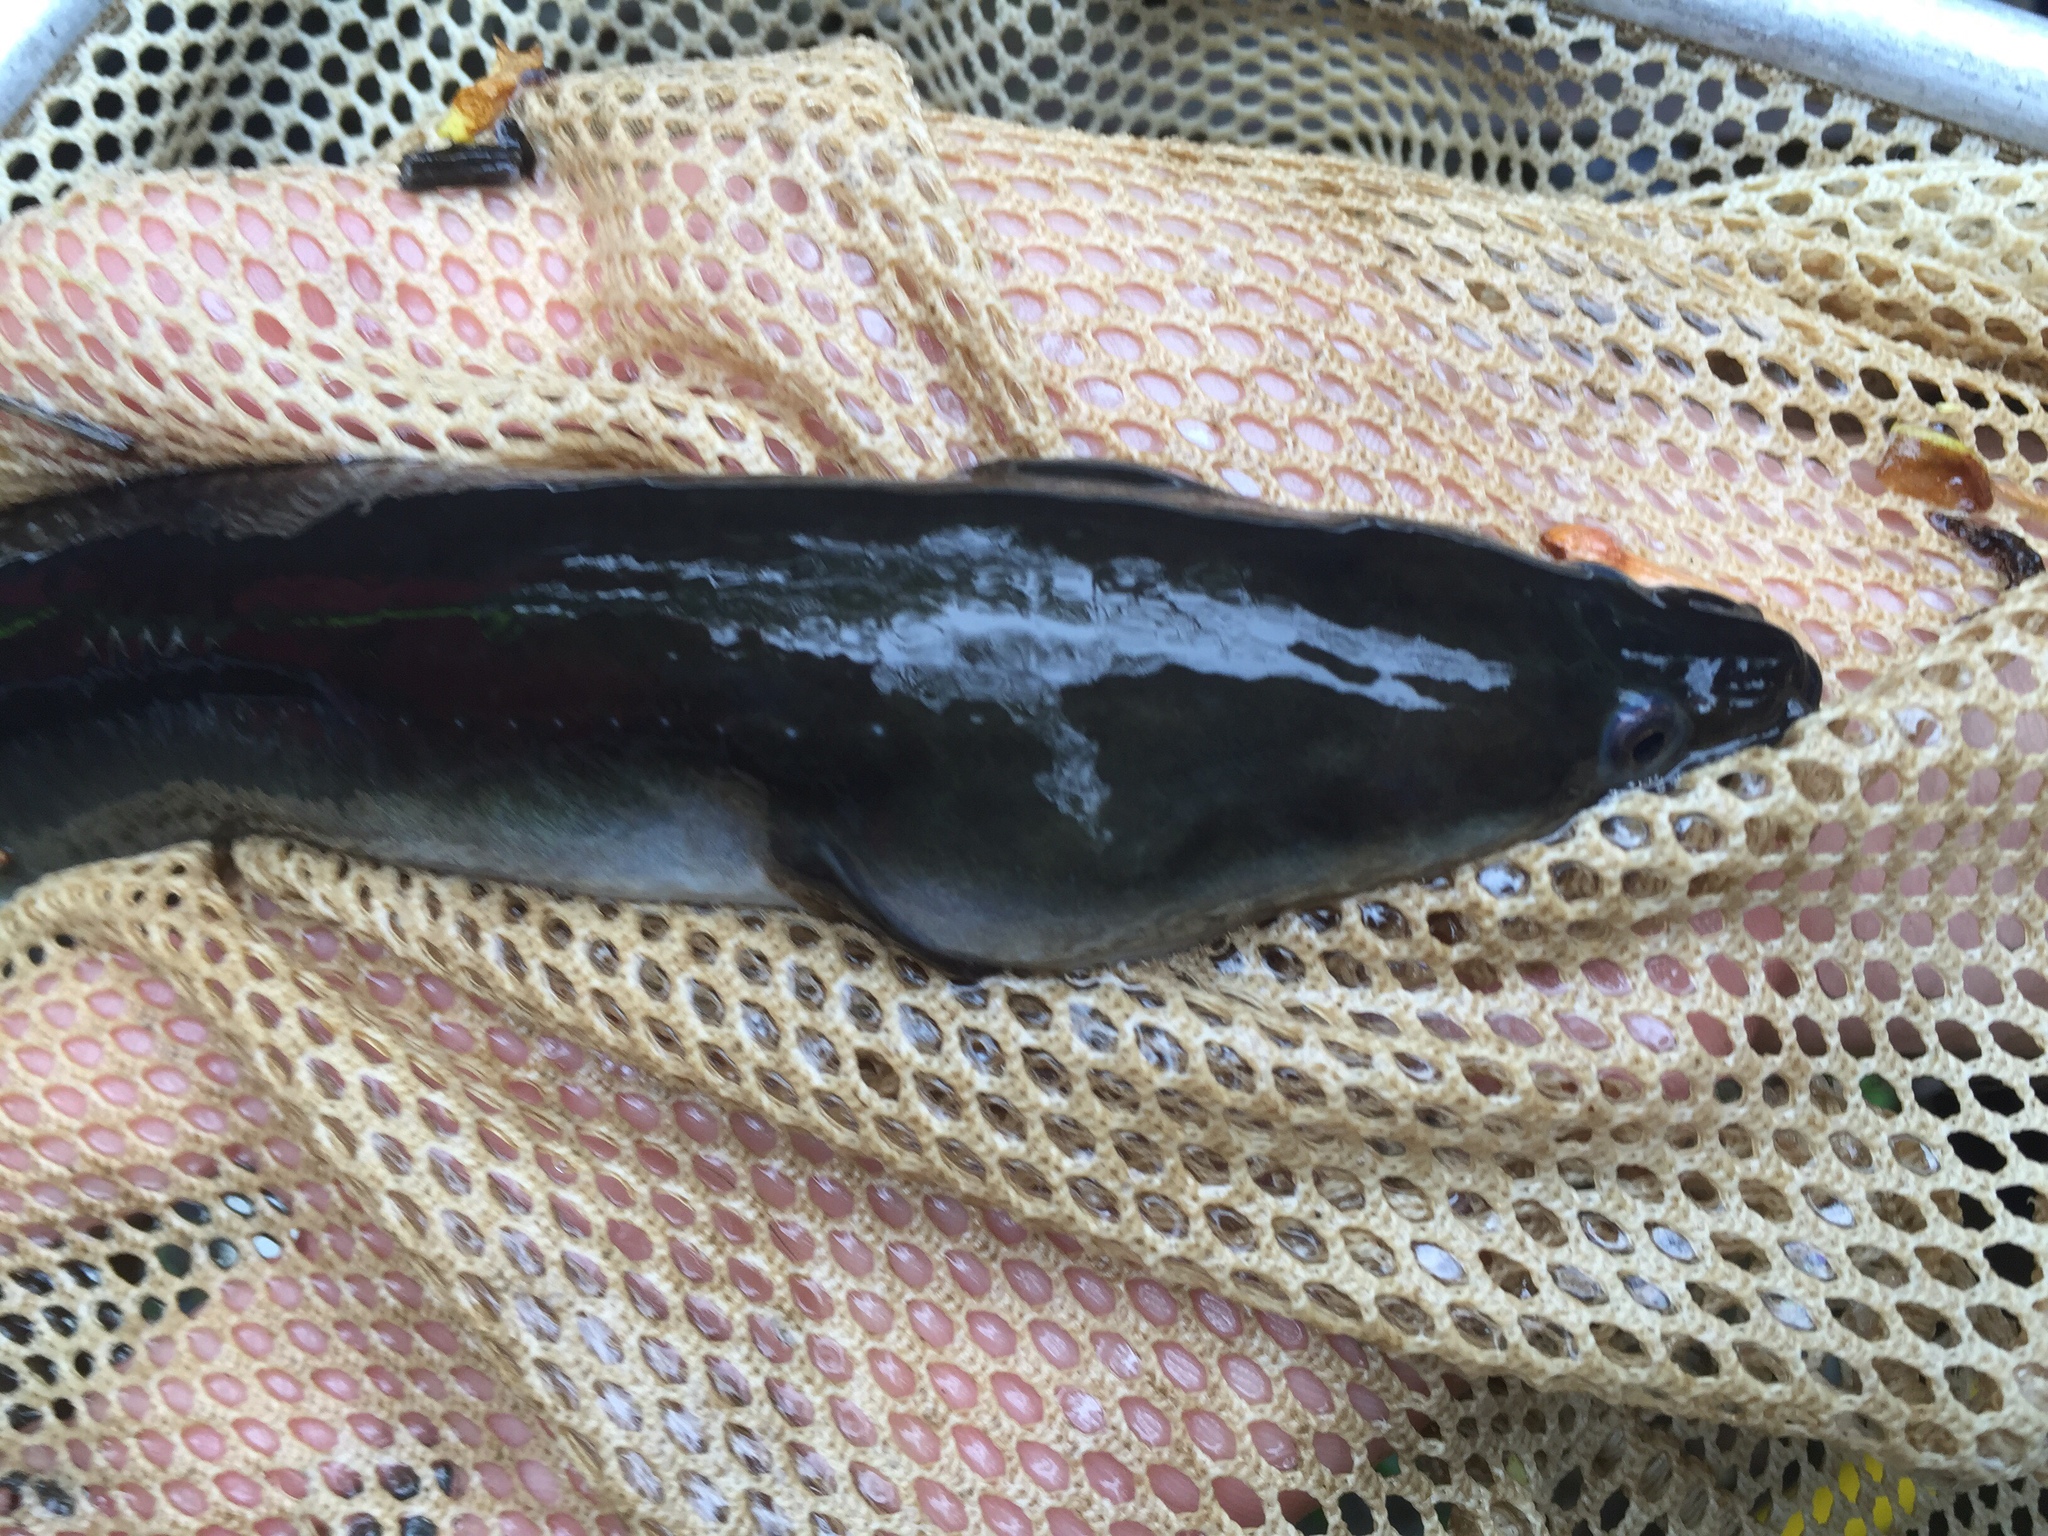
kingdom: Animalia
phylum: Chordata
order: Anguilliformes
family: Anguillidae
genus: Anguilla
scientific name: Anguilla rostrata
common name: American eel
